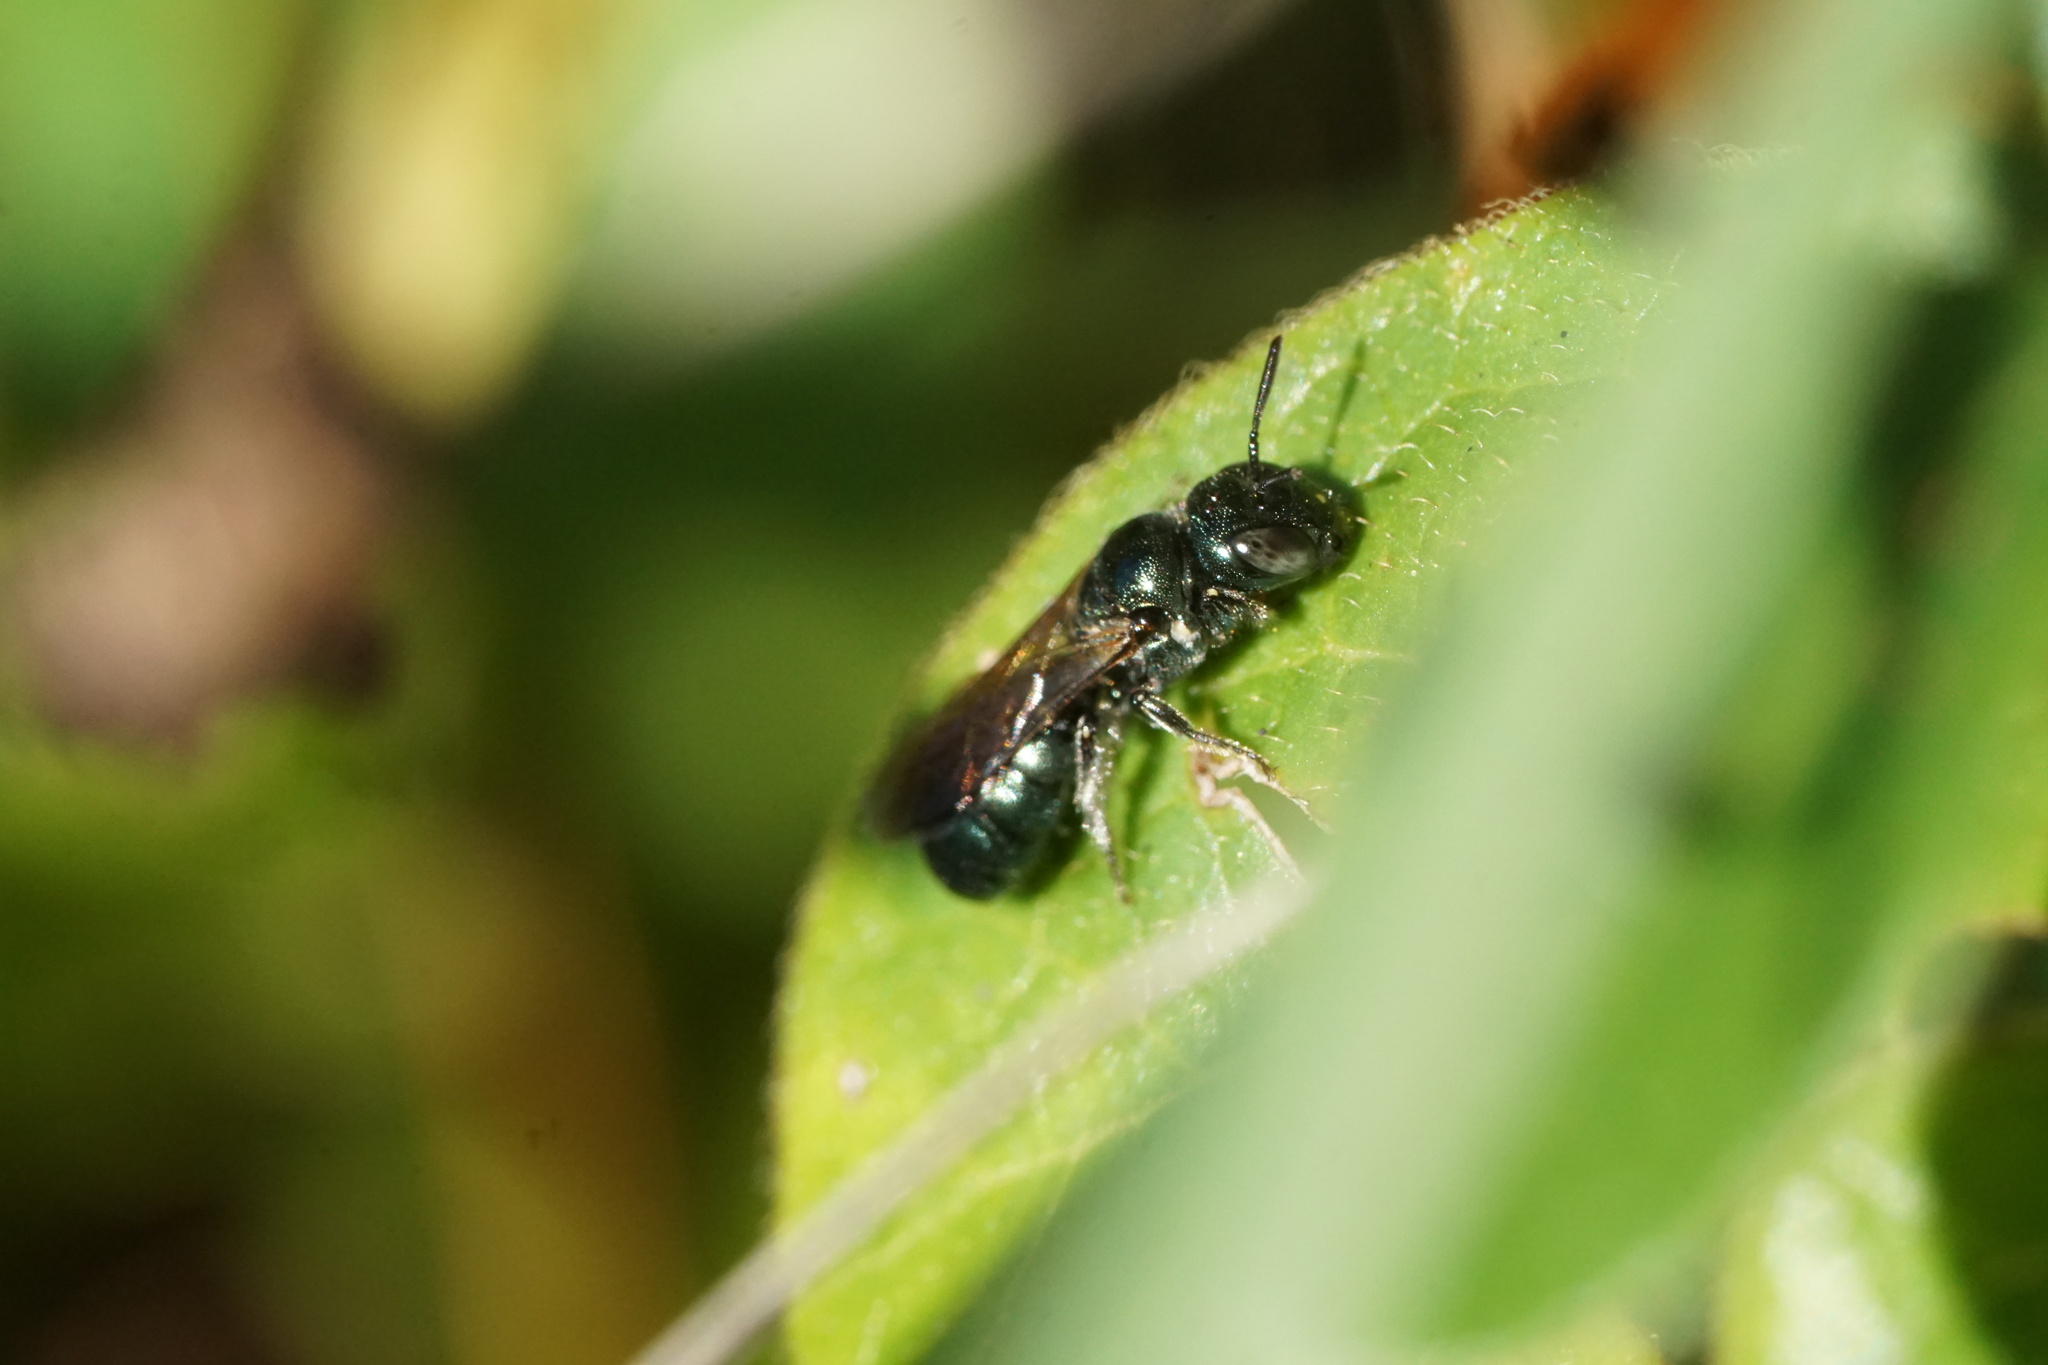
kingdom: Animalia
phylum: Arthropoda
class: Insecta
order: Hymenoptera
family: Apidae
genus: Ceratina
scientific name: Ceratina calcarata
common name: Spurred carpenter bee
